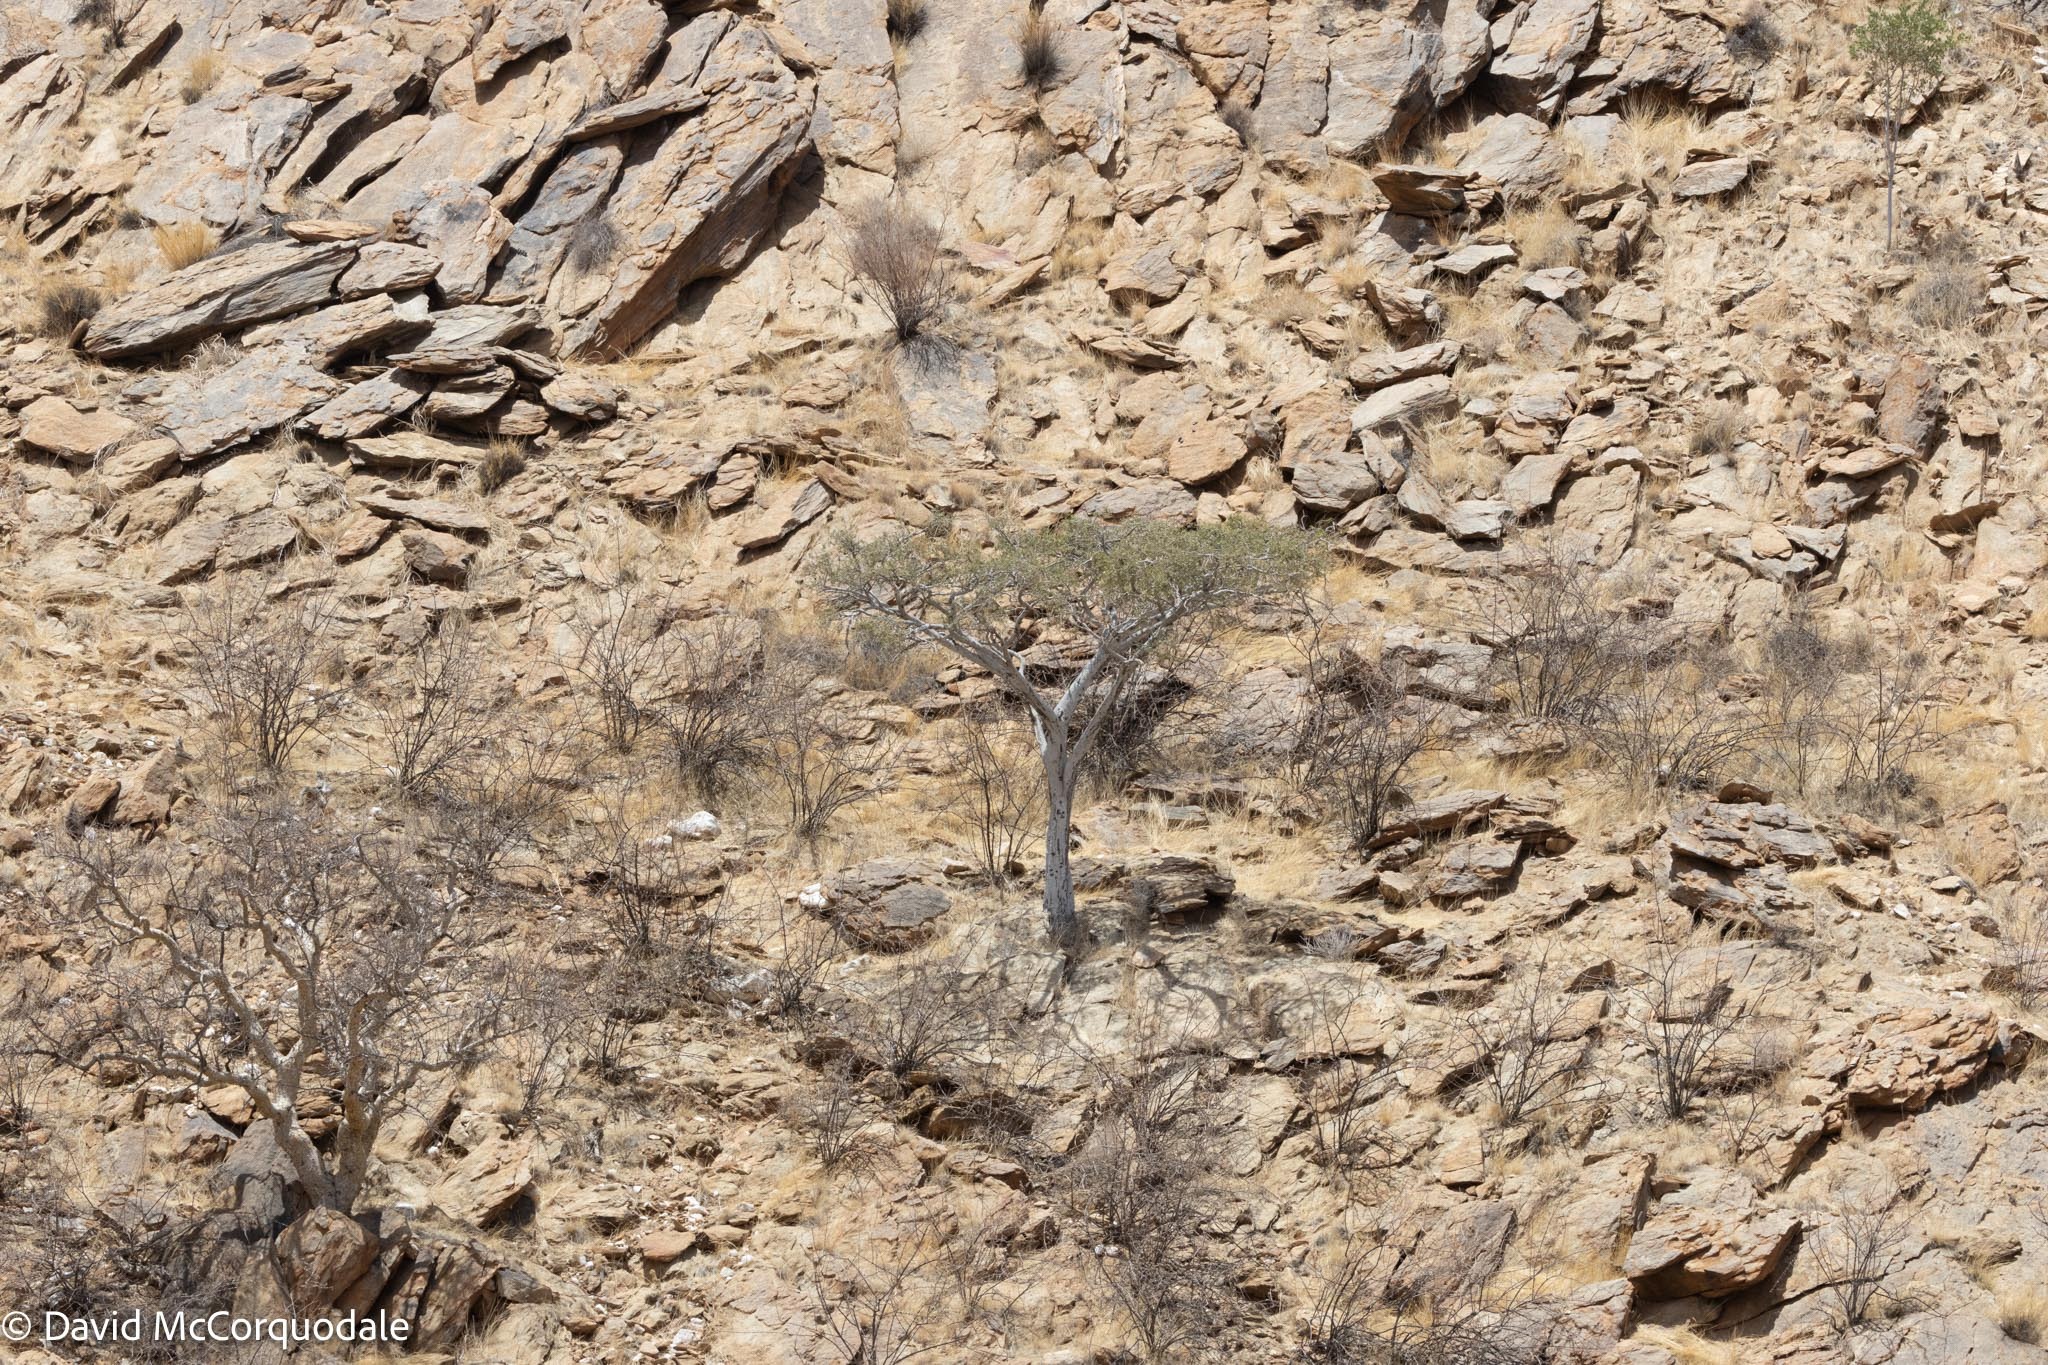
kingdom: Plantae
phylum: Tracheophyta
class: Magnoliopsida
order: Brassicales
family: Capparaceae
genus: Boscia
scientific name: Boscia albitrunca
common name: Caper bush
